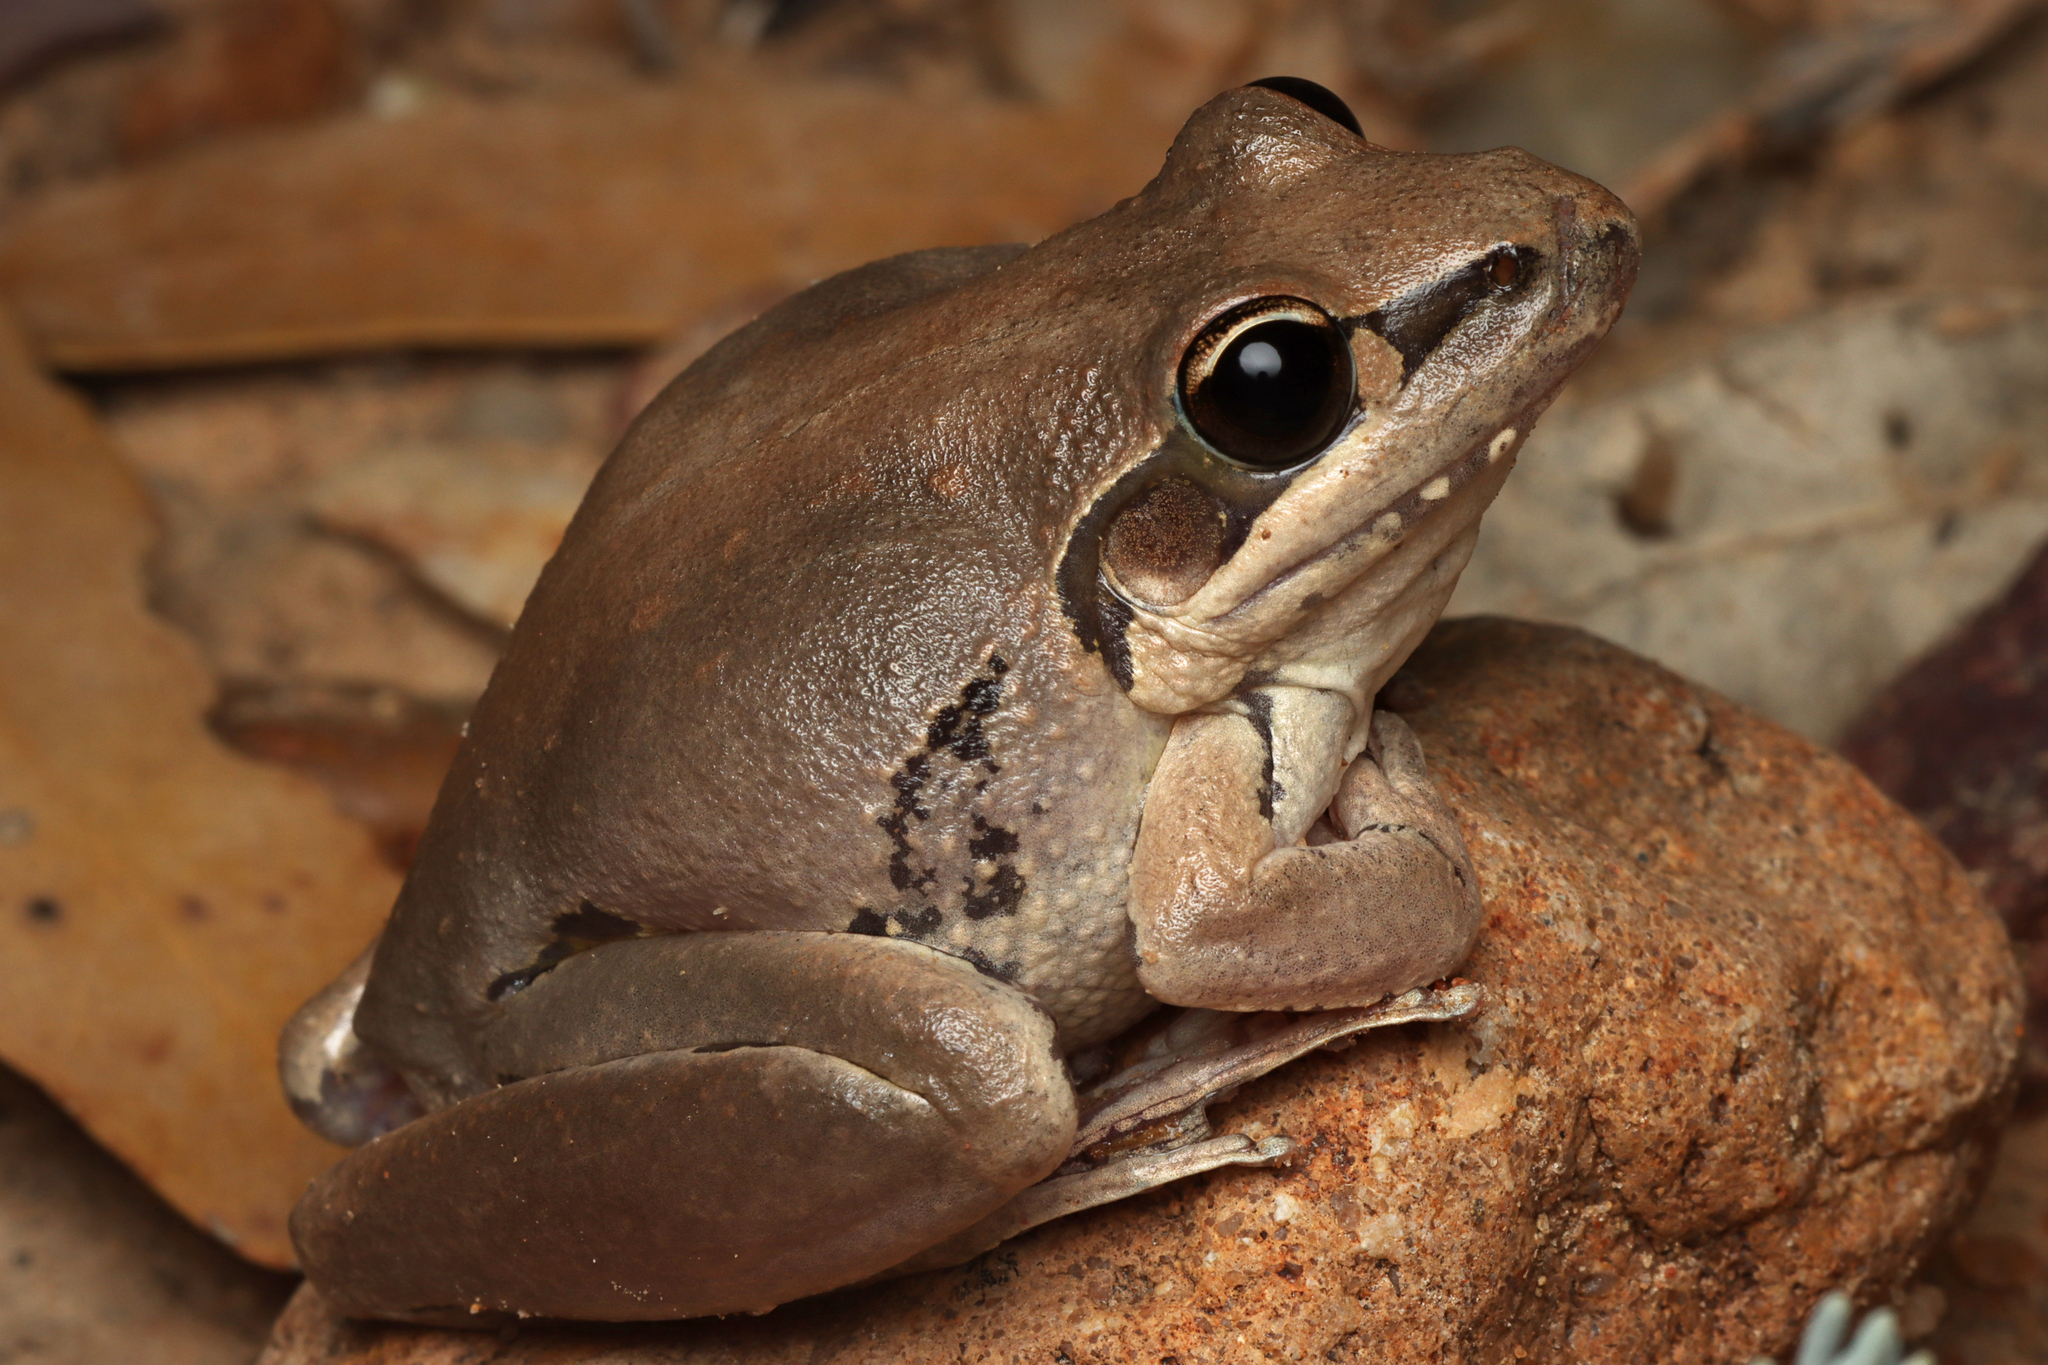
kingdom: Animalia
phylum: Chordata
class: Amphibia
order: Anura
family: Pelodryadidae
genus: Litoria
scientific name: Litoria latopalmata
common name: Broad-palmed rocket frog
